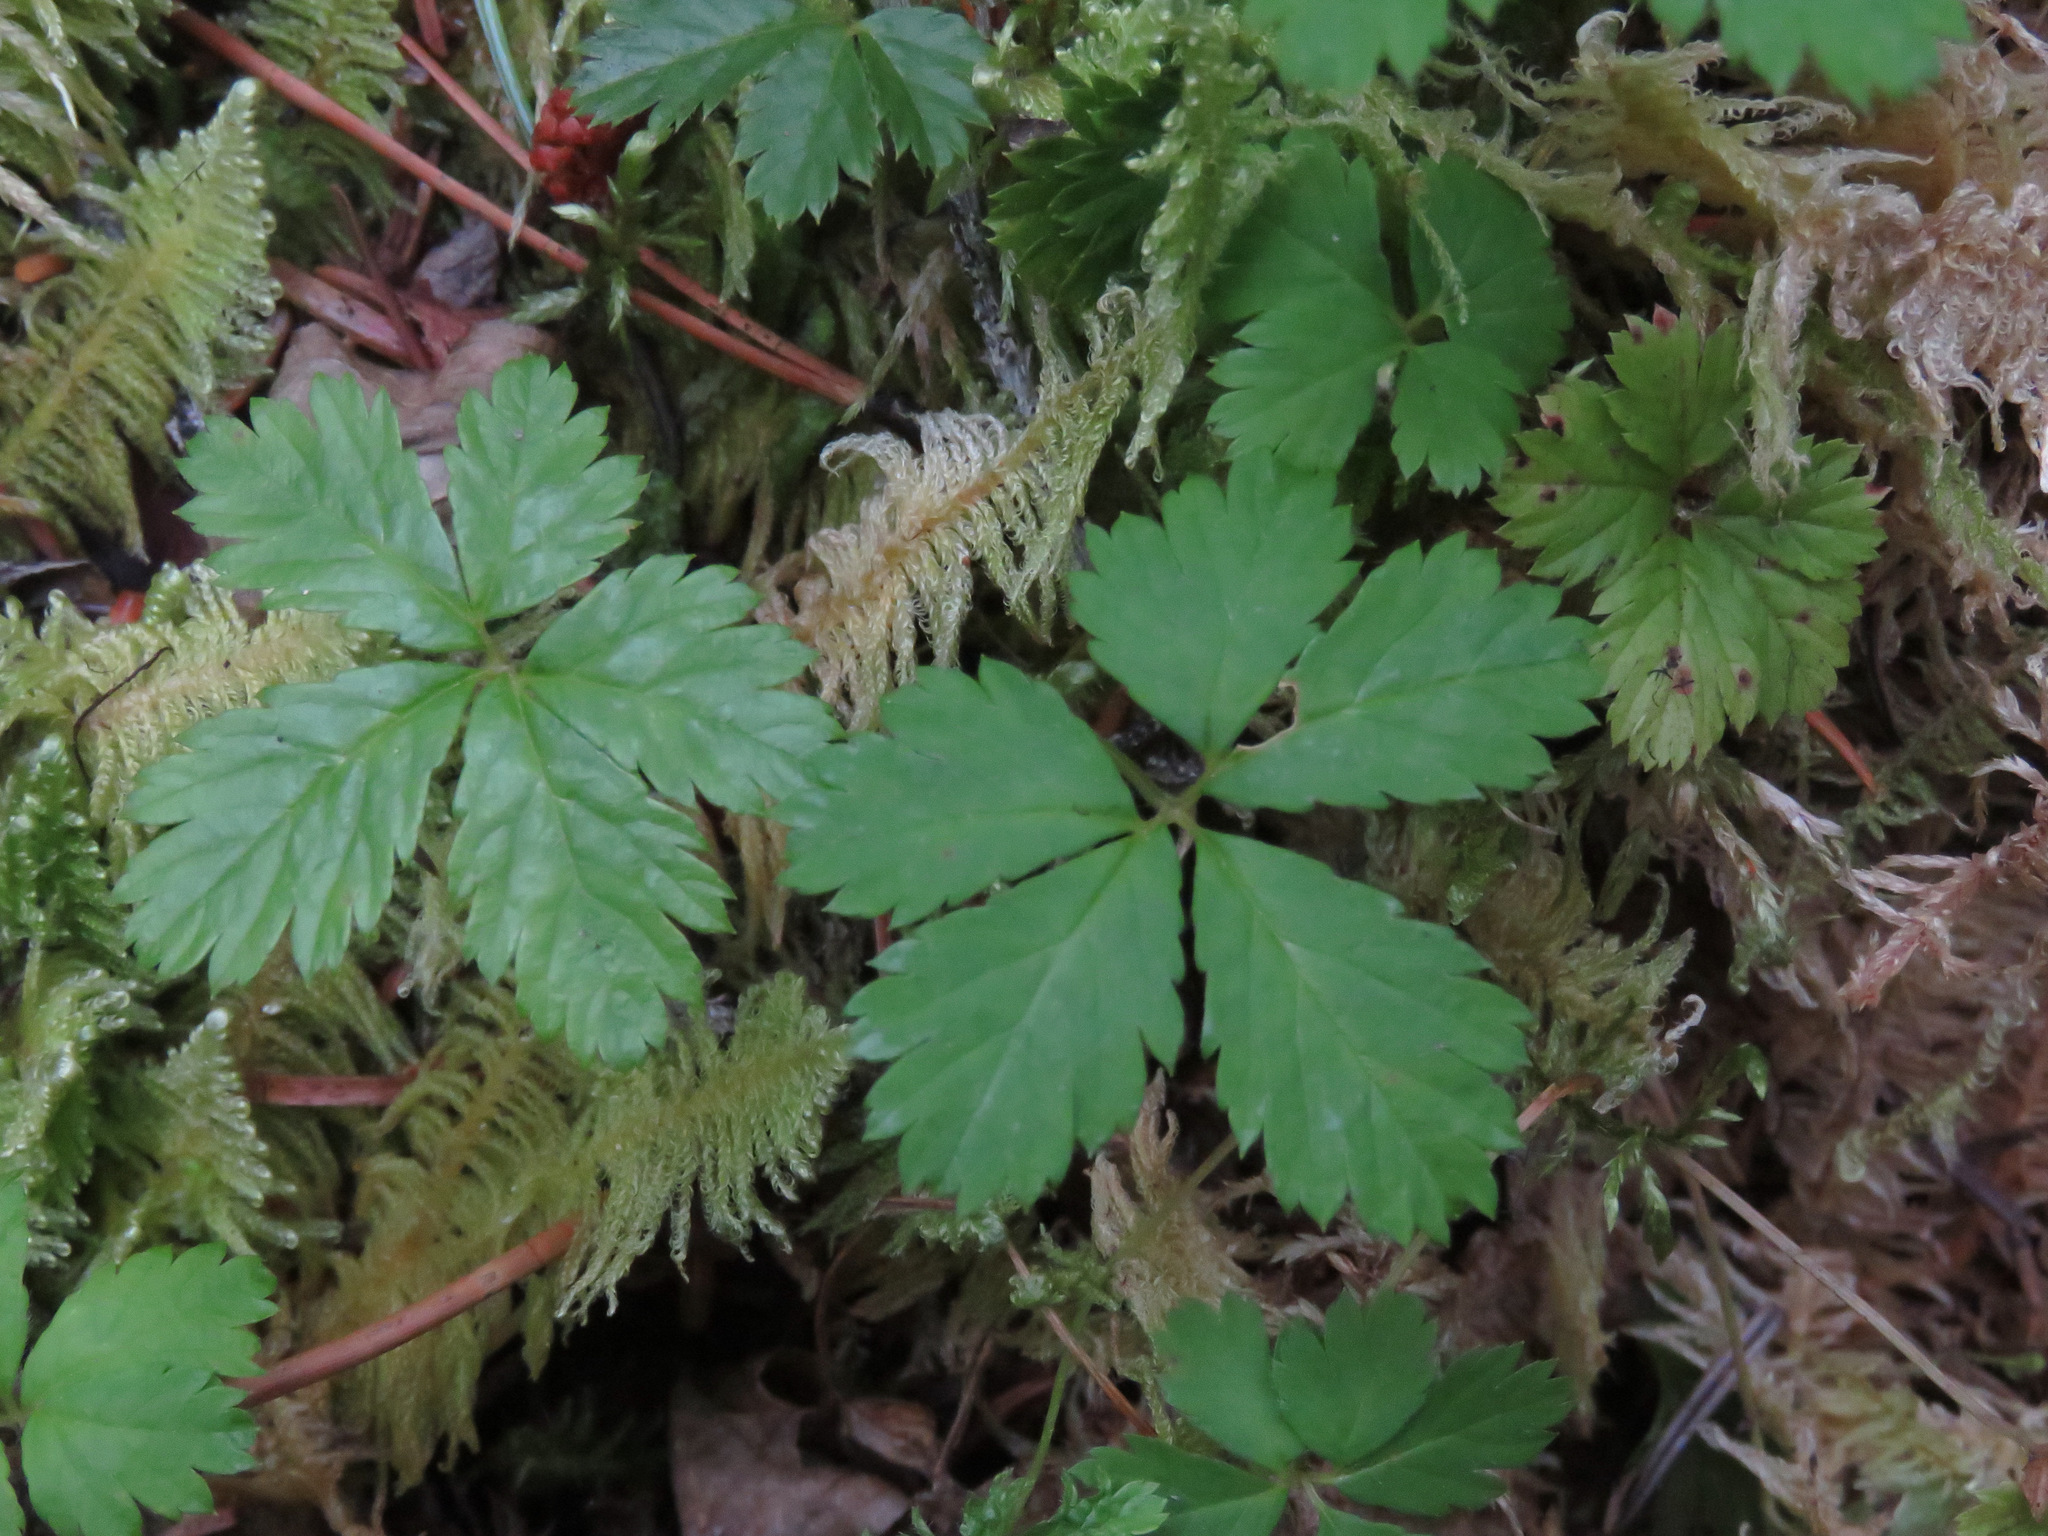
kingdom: Plantae
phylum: Tracheophyta
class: Magnoliopsida
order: Rosales
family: Rosaceae
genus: Rubus
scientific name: Rubus pedatus
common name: Creeping raspberry
